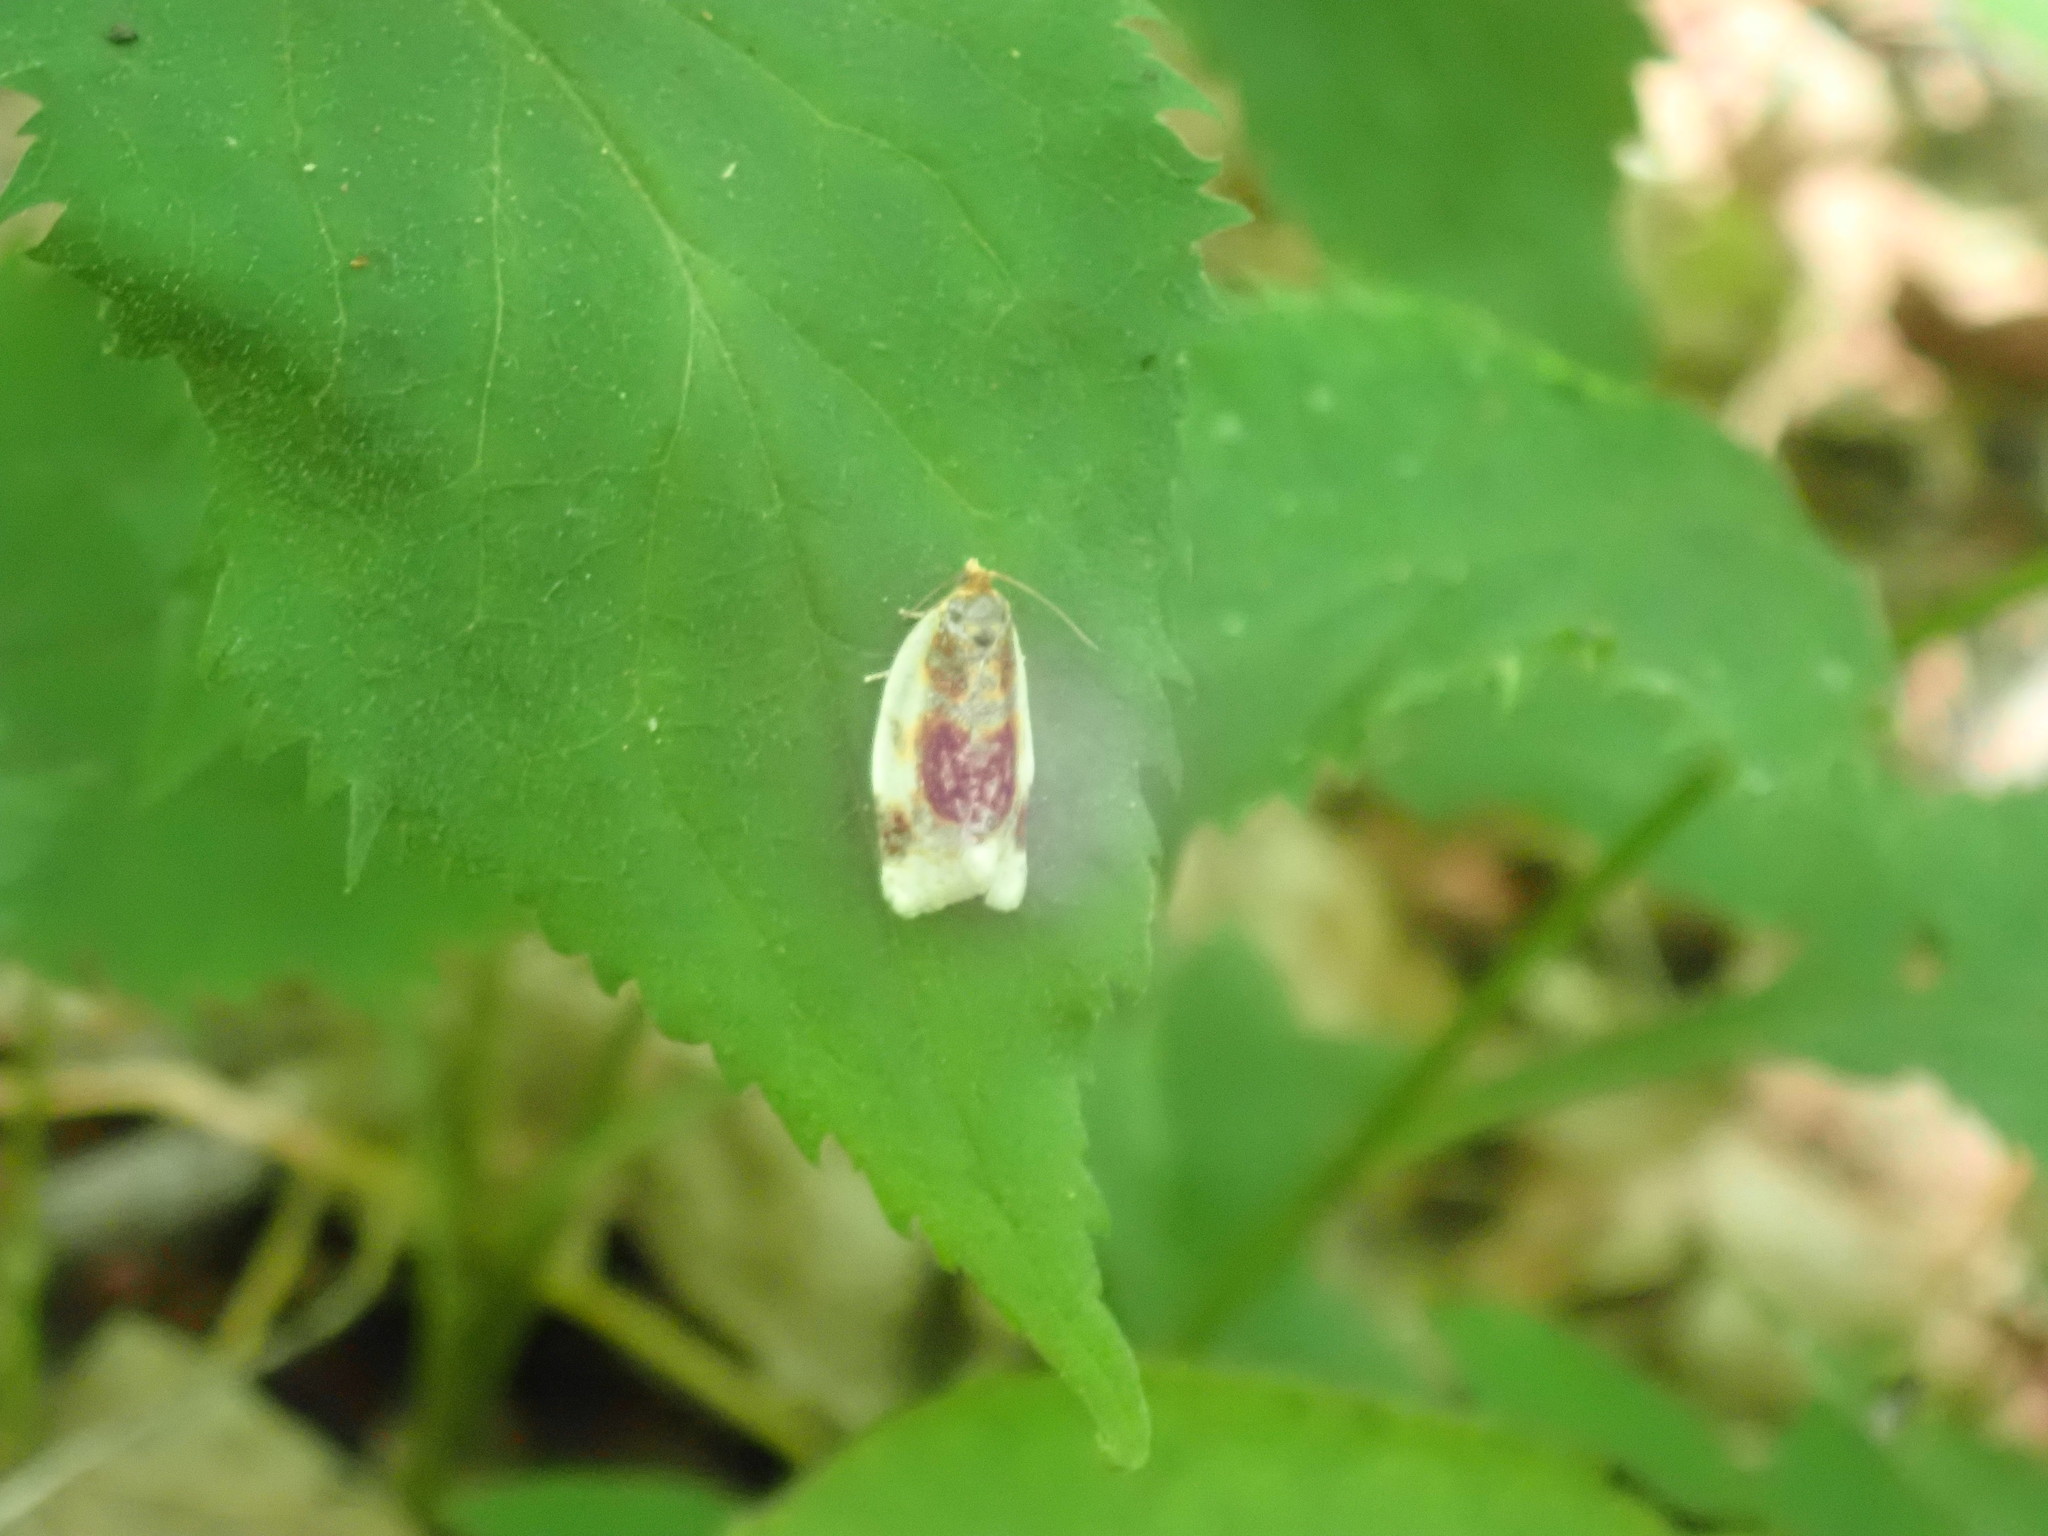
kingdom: Animalia
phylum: Arthropoda
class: Insecta
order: Lepidoptera
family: Tortricidae
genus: Clepsis
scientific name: Clepsis melaleucanus
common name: American apple tortrix
